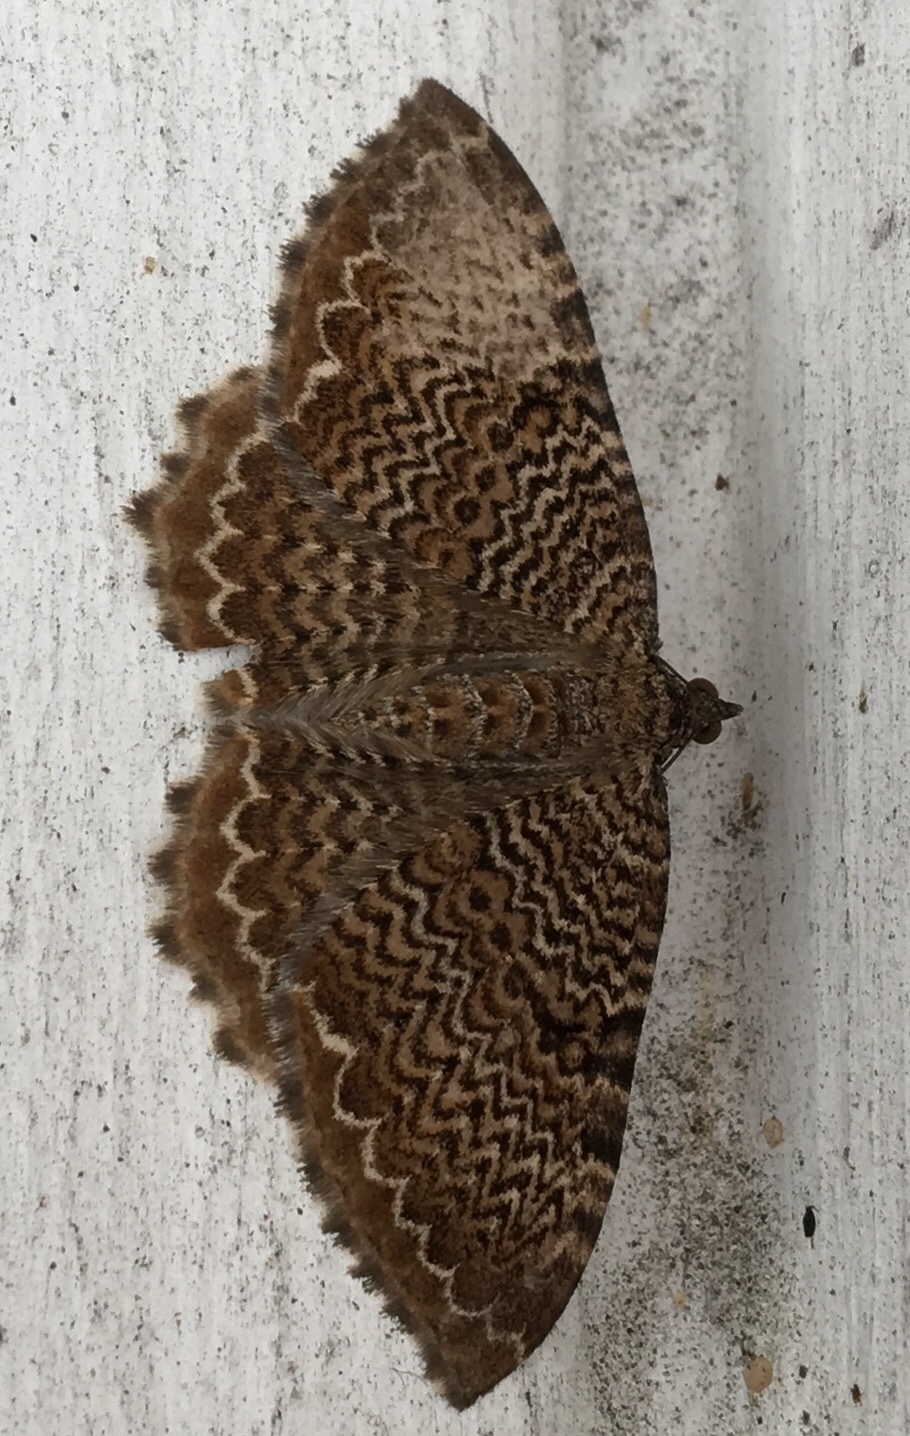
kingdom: Animalia
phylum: Arthropoda
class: Insecta
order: Lepidoptera
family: Geometridae
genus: Rheumaptera
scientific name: Rheumaptera prunivorata
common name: Cherry scallop shell moth
